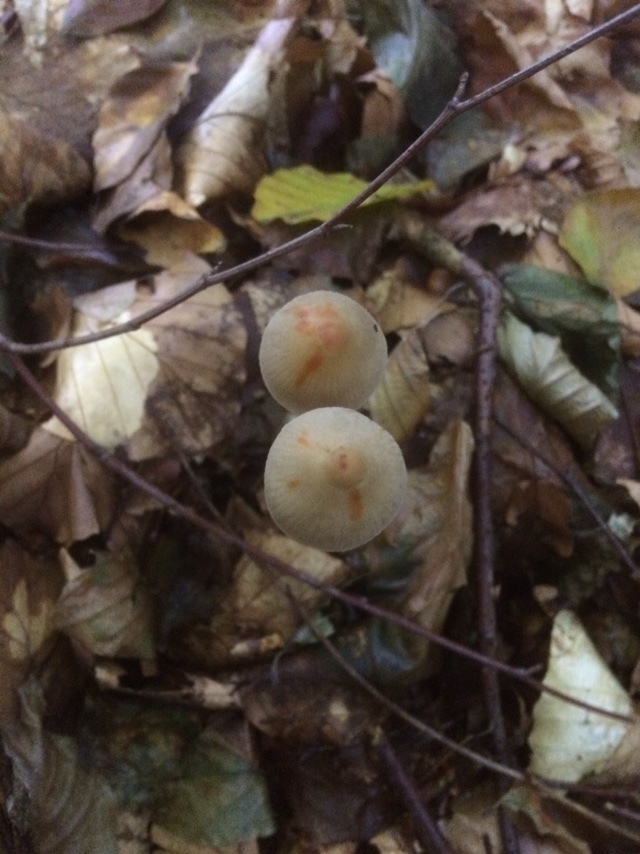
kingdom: Fungi
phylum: Basidiomycota
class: Agaricomycetes
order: Agaricales
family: Mycenaceae
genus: Mycena
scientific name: Mycena crocata
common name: Saffrondrop bonnet
